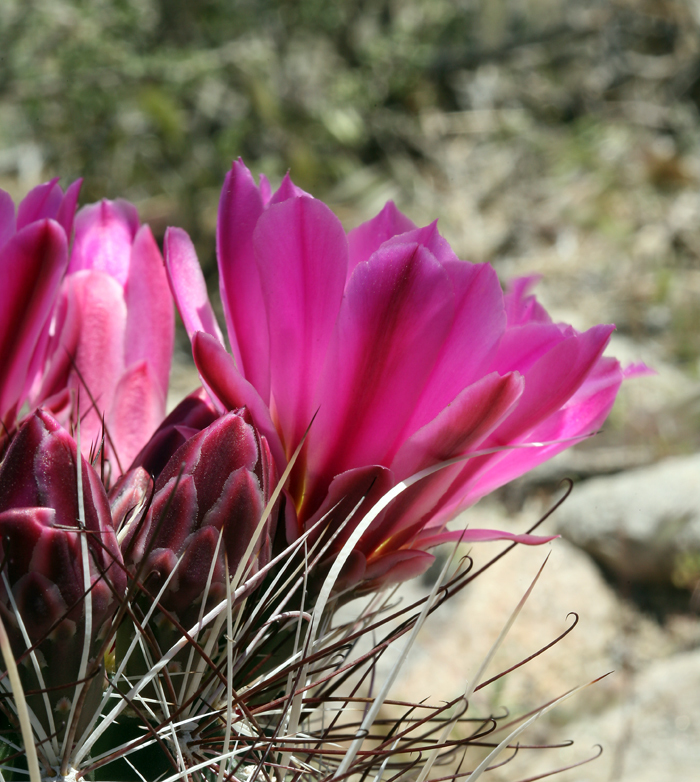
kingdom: Plantae
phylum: Tracheophyta
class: Magnoliopsida
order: Caryophyllales
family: Cactaceae
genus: Sclerocactus
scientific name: Sclerocactus polyancistrus
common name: Mohave fishhook cactus
